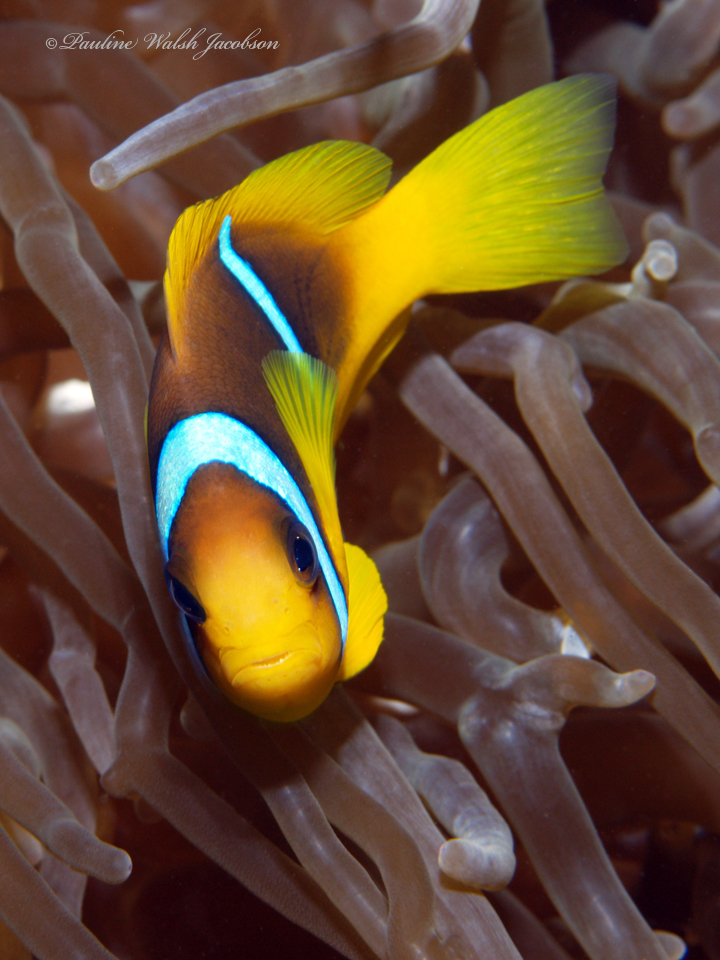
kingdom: Animalia
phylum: Chordata
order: Perciformes
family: Pomacentridae
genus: Amphiprion
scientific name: Amphiprion bicinctus
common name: Two-banded anemonefish
